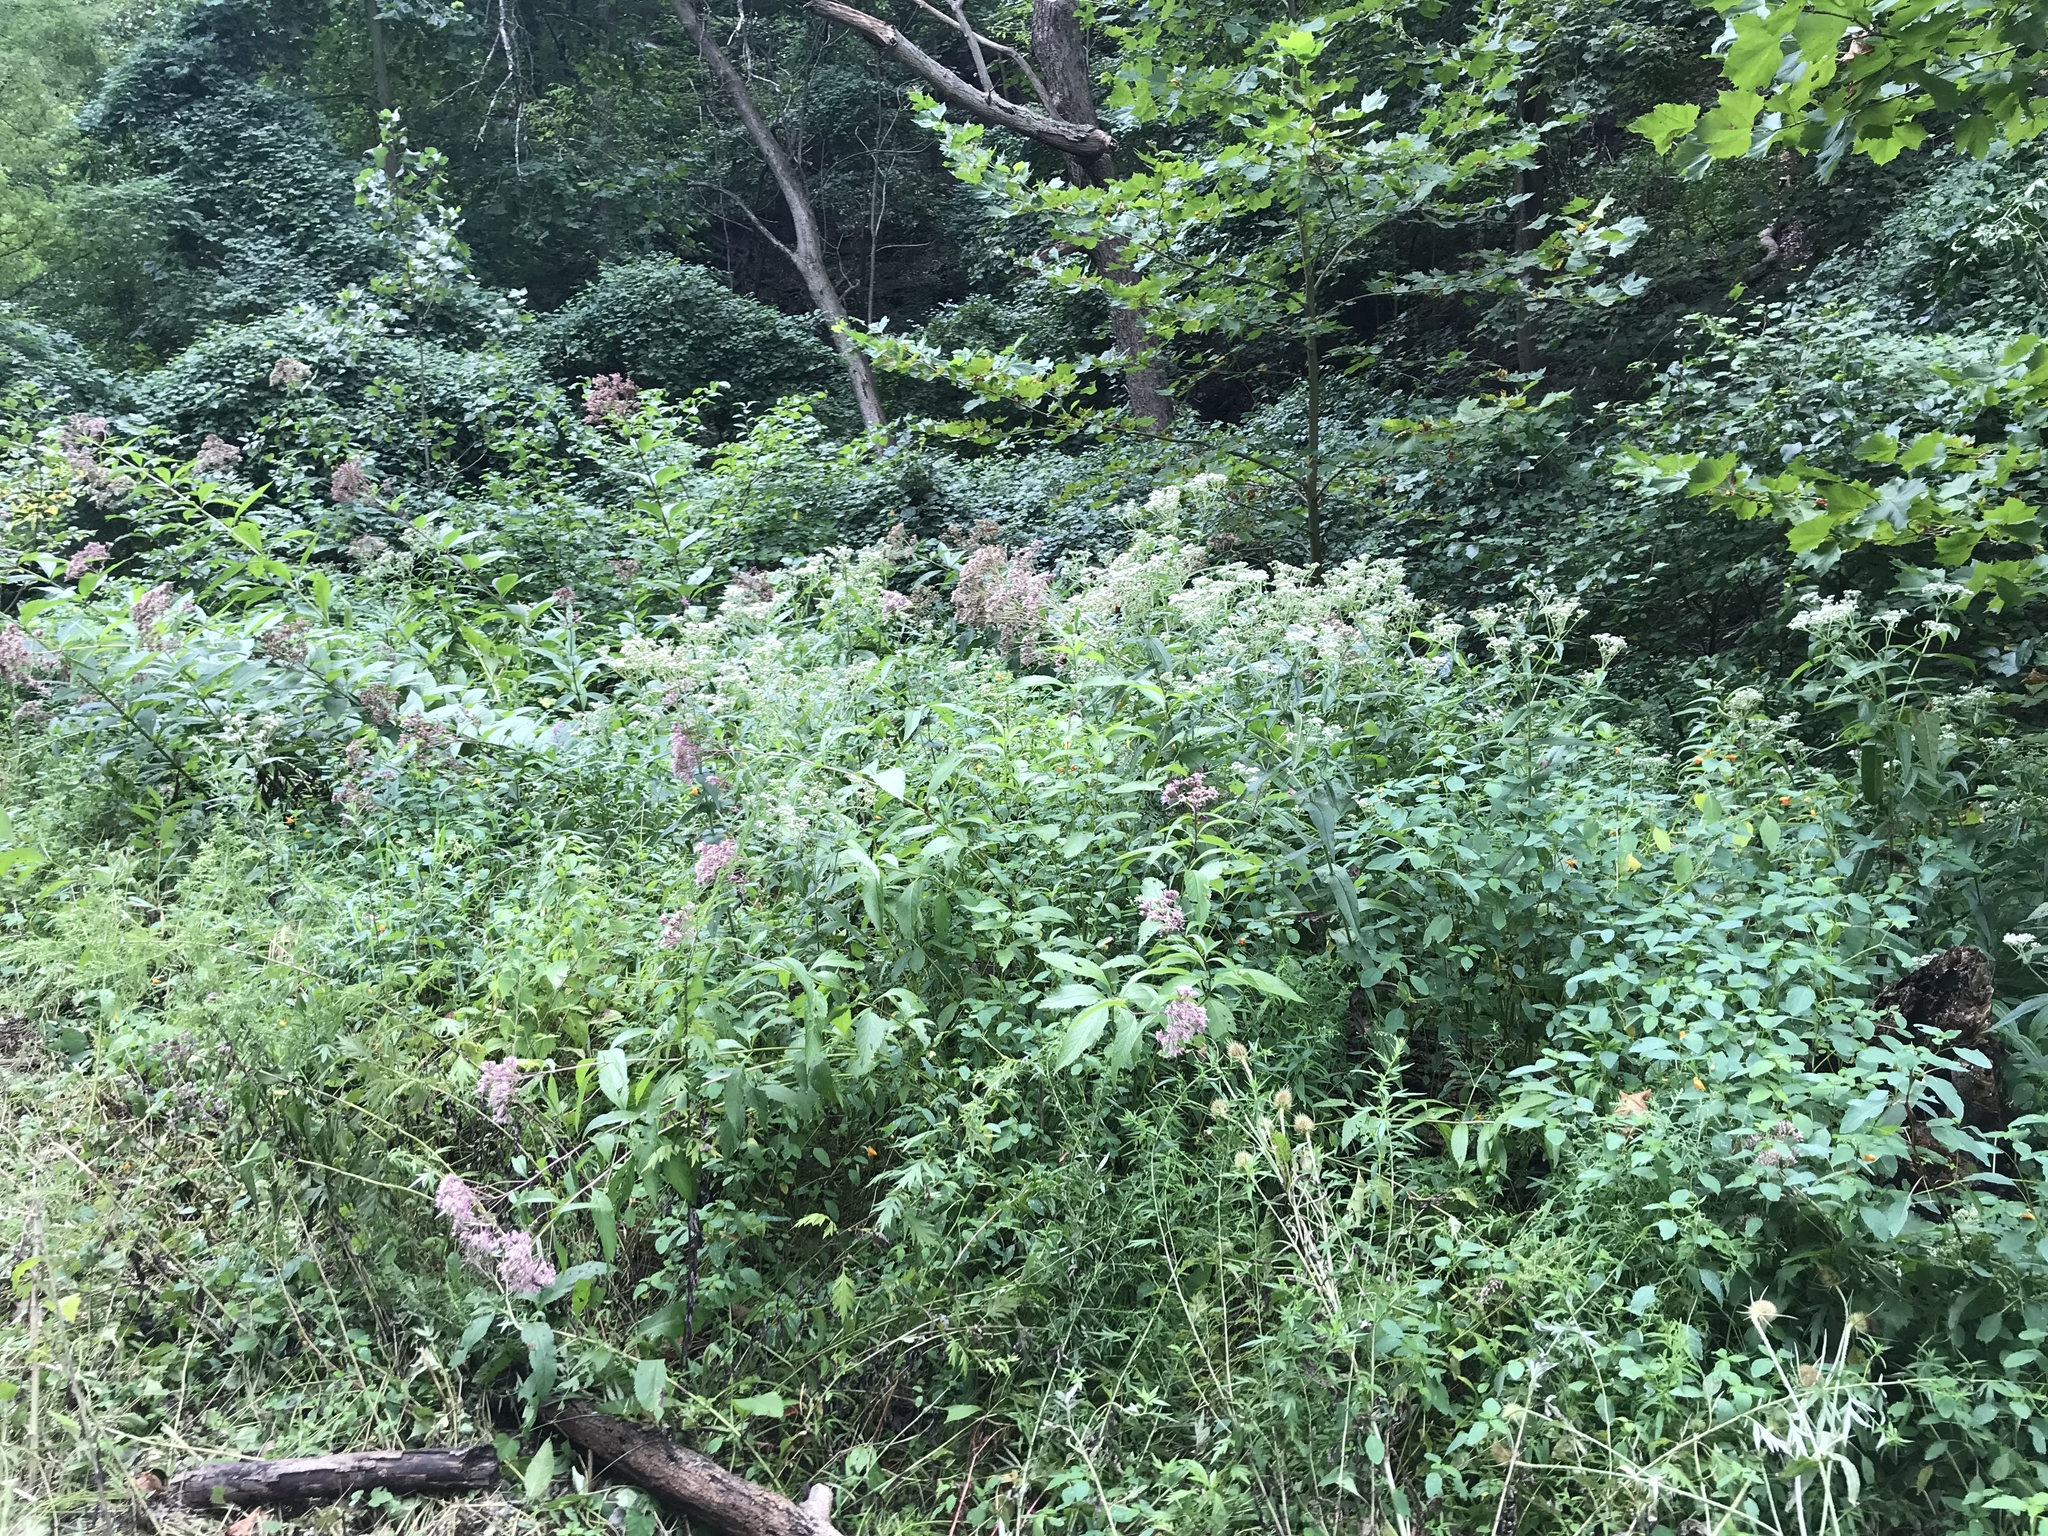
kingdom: Plantae
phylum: Tracheophyta
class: Magnoliopsida
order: Asterales
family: Asteraceae
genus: Eupatorium
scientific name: Eupatorium perfoliatum
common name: Boneset
